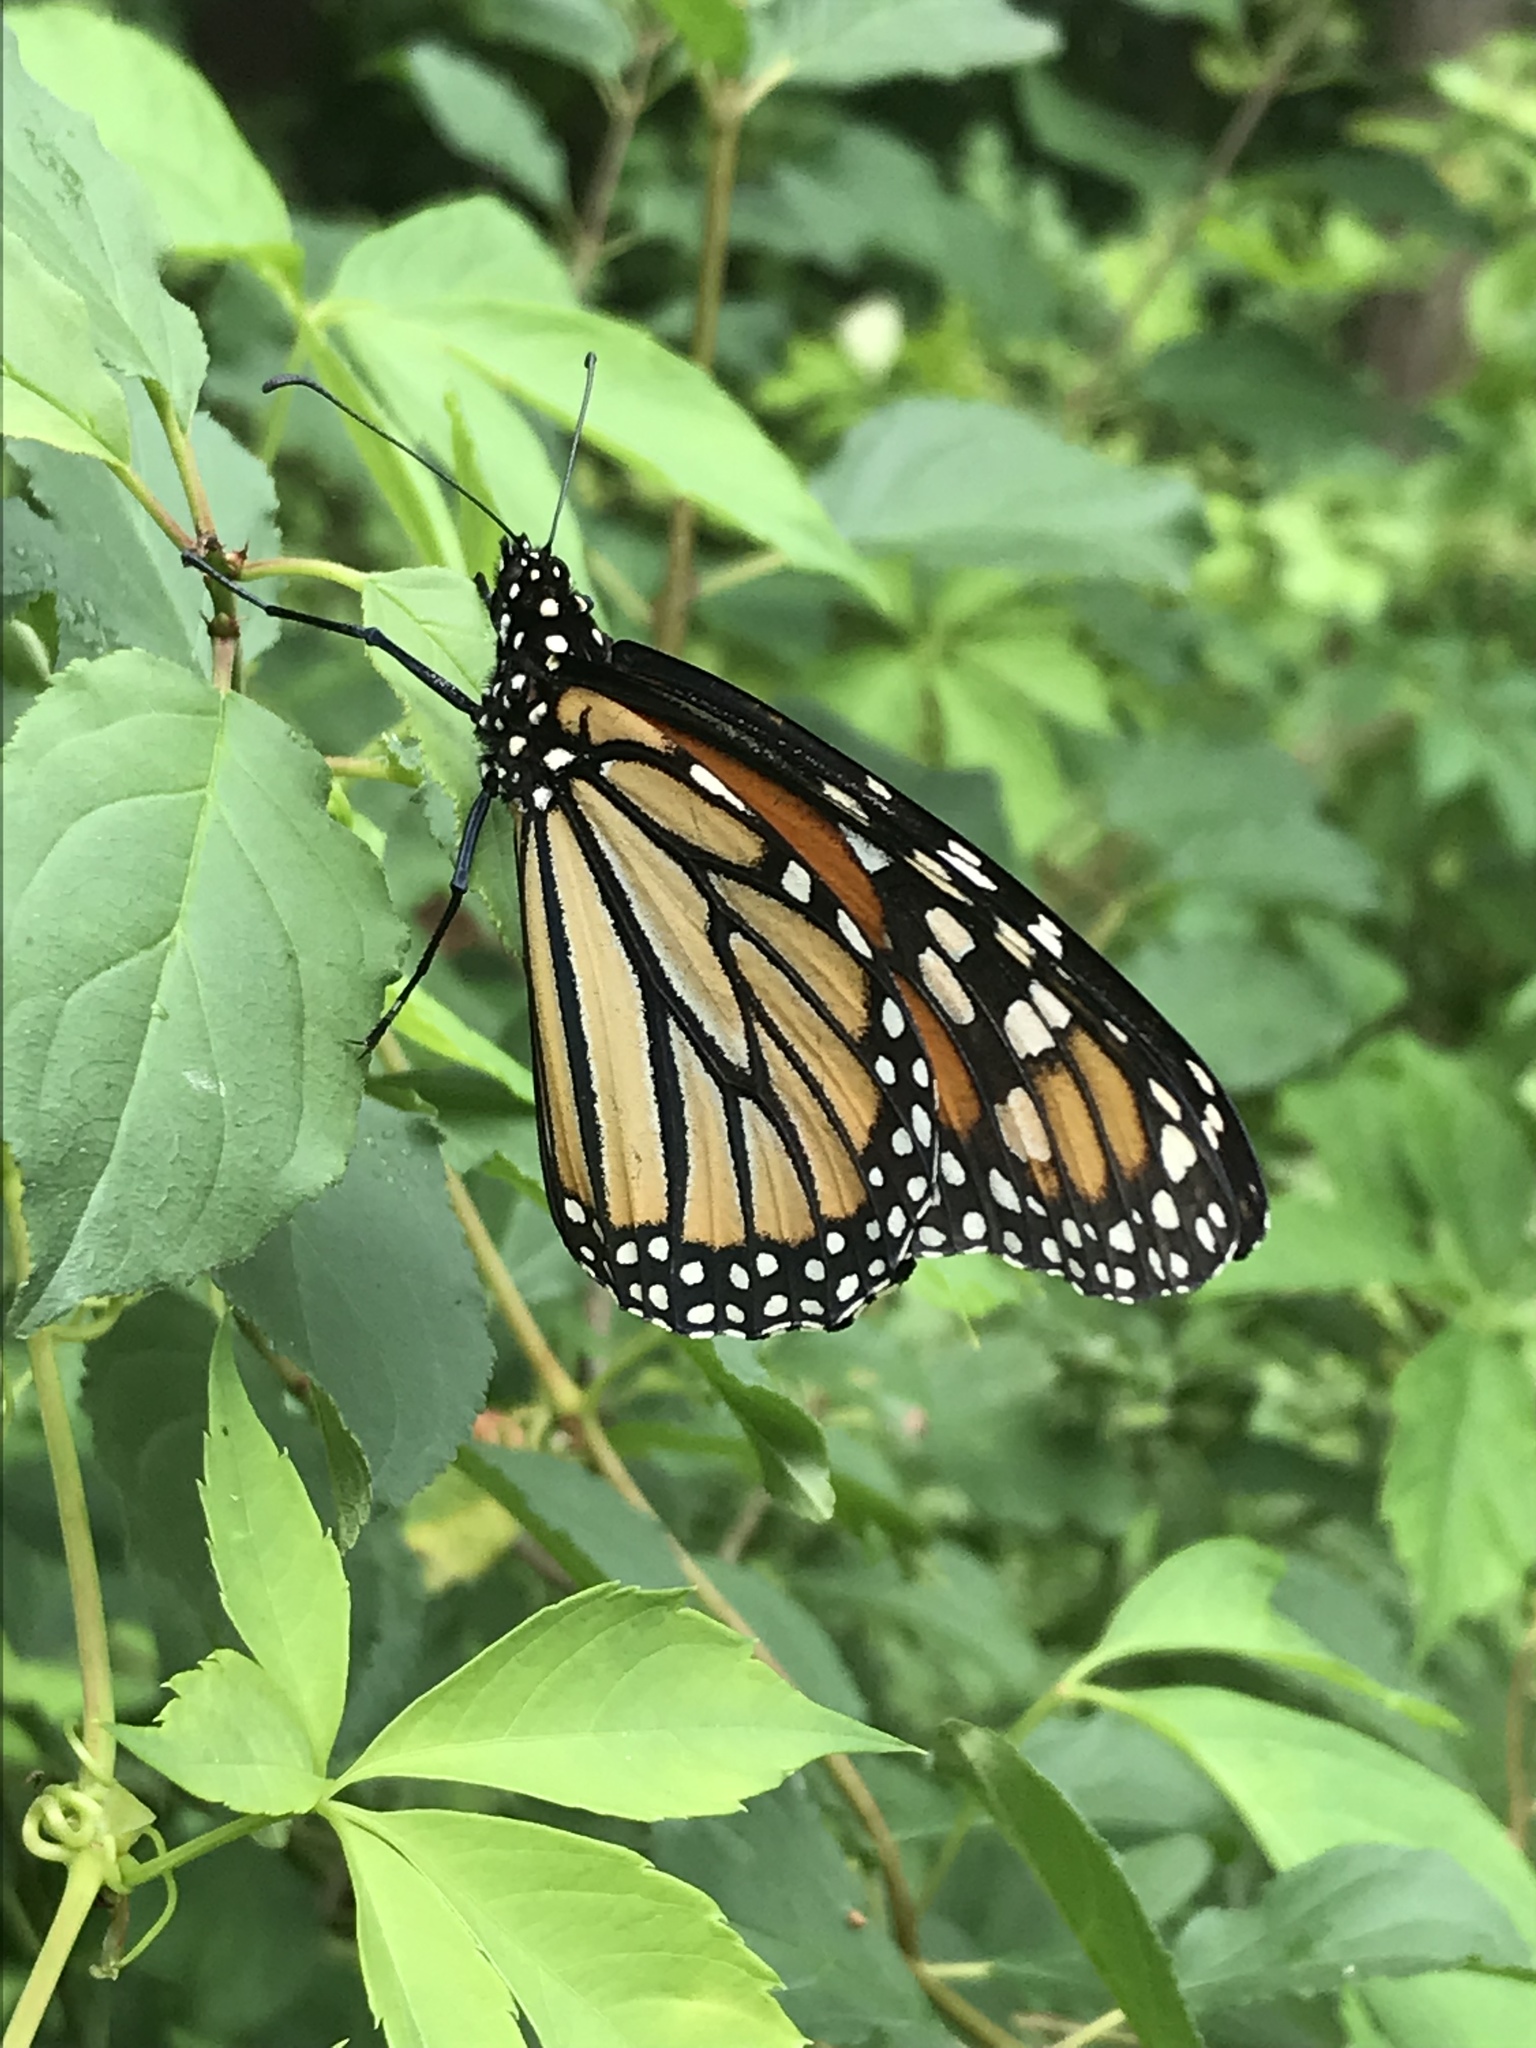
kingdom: Animalia
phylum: Arthropoda
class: Insecta
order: Lepidoptera
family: Nymphalidae
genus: Danaus
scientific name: Danaus plexippus
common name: Monarch
